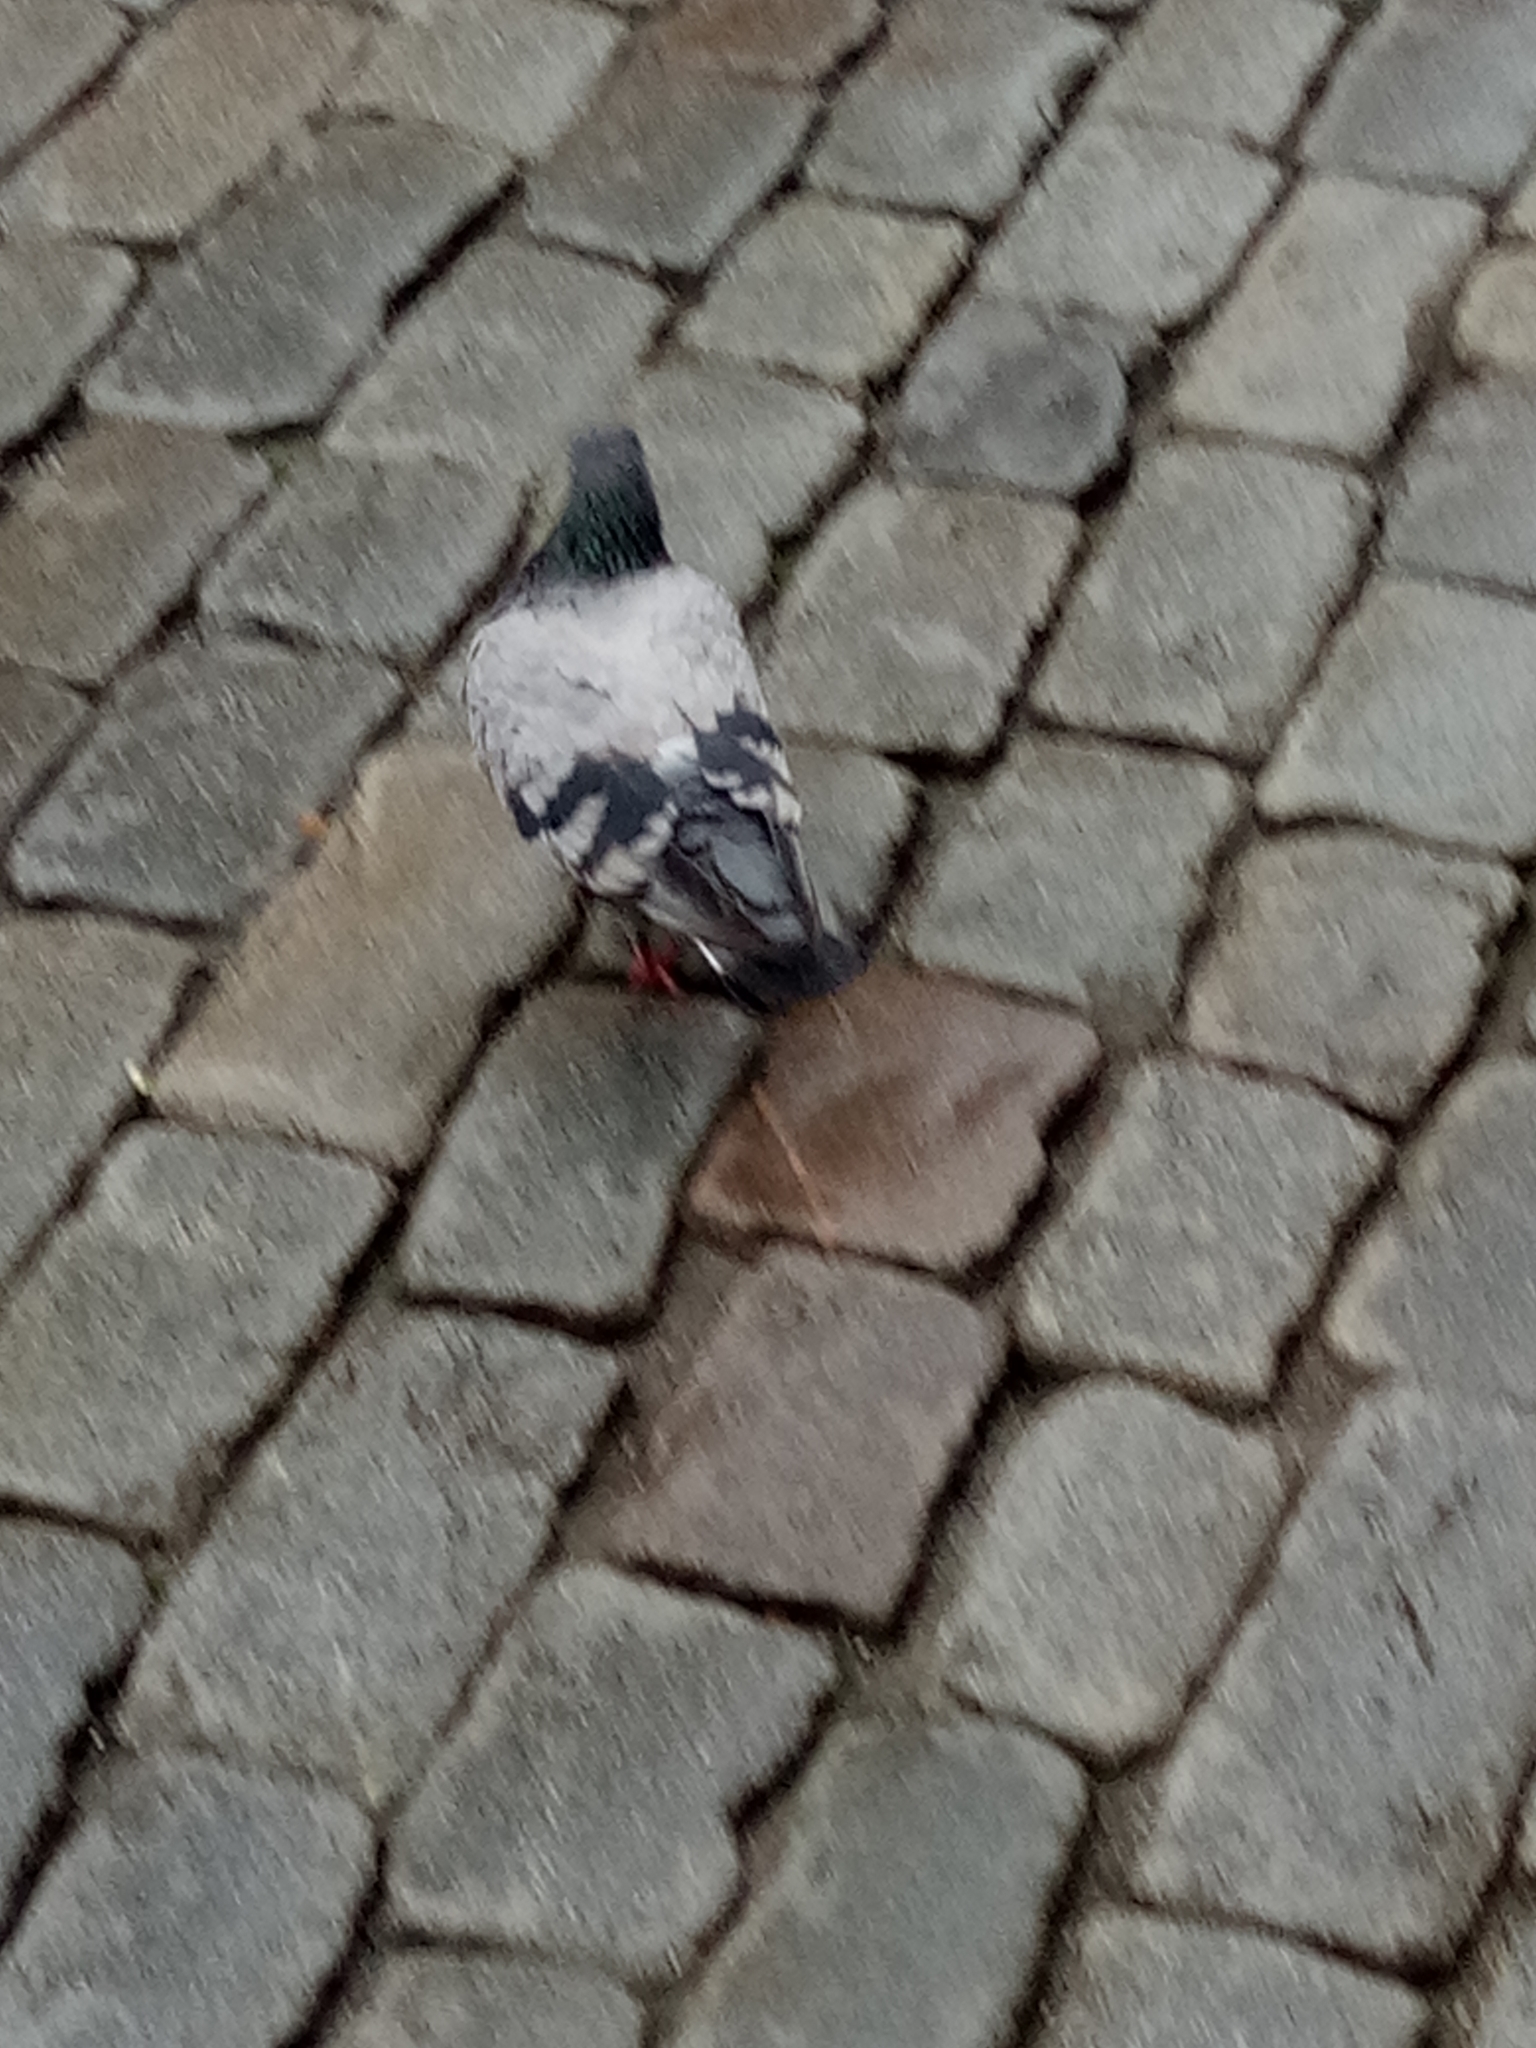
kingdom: Animalia
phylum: Chordata
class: Aves
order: Columbiformes
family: Columbidae
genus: Columba
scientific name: Columba livia
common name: Rock pigeon
